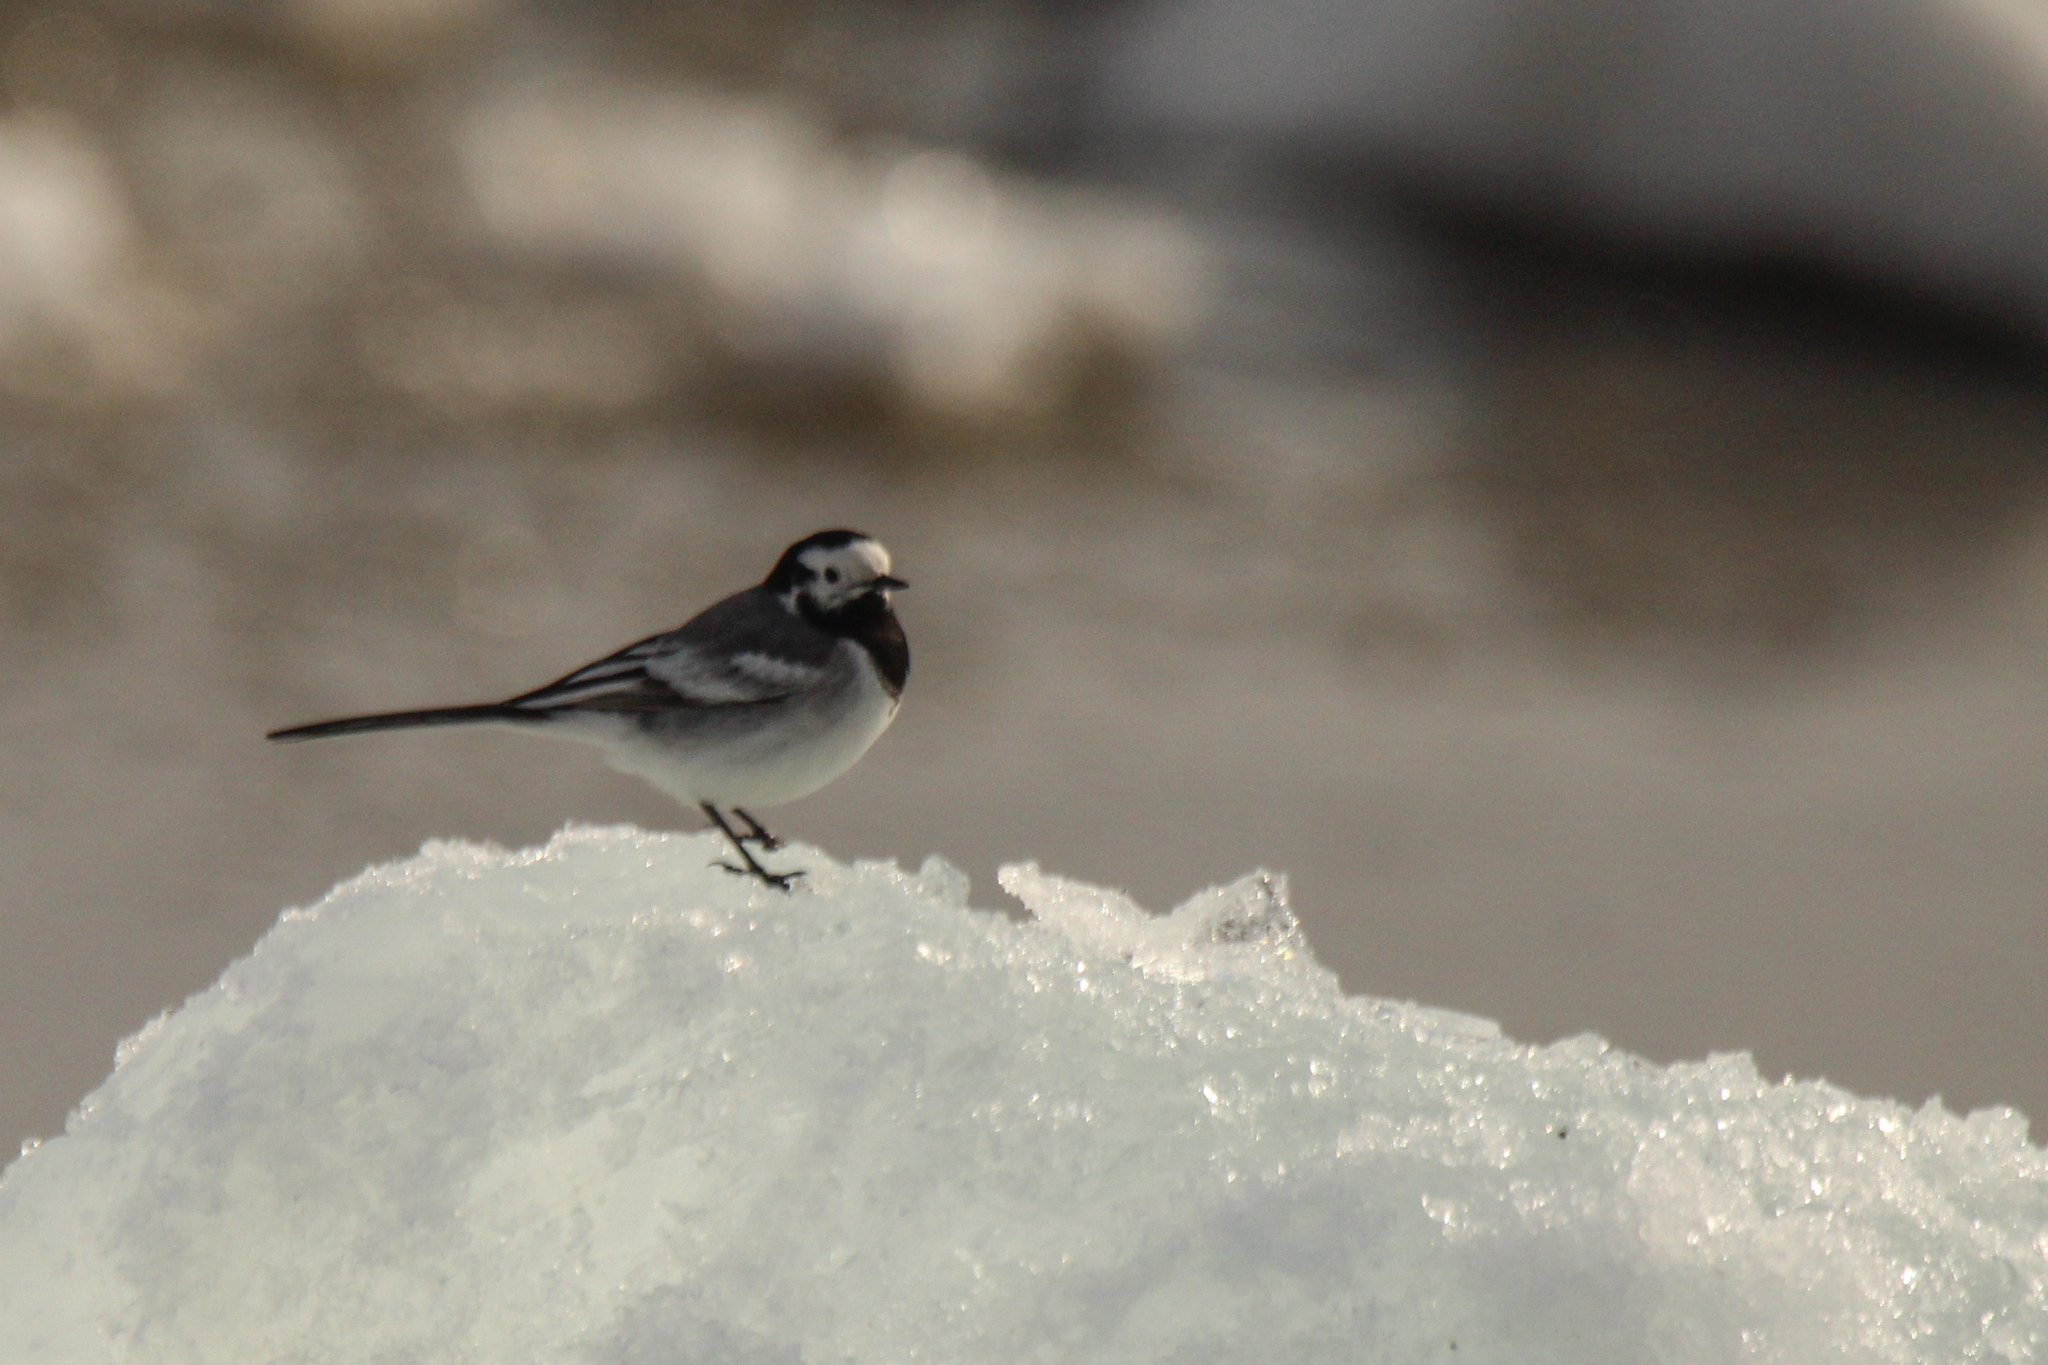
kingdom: Animalia
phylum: Chordata
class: Aves
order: Passeriformes
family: Motacillidae
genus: Motacilla
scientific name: Motacilla alba
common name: White wagtail
